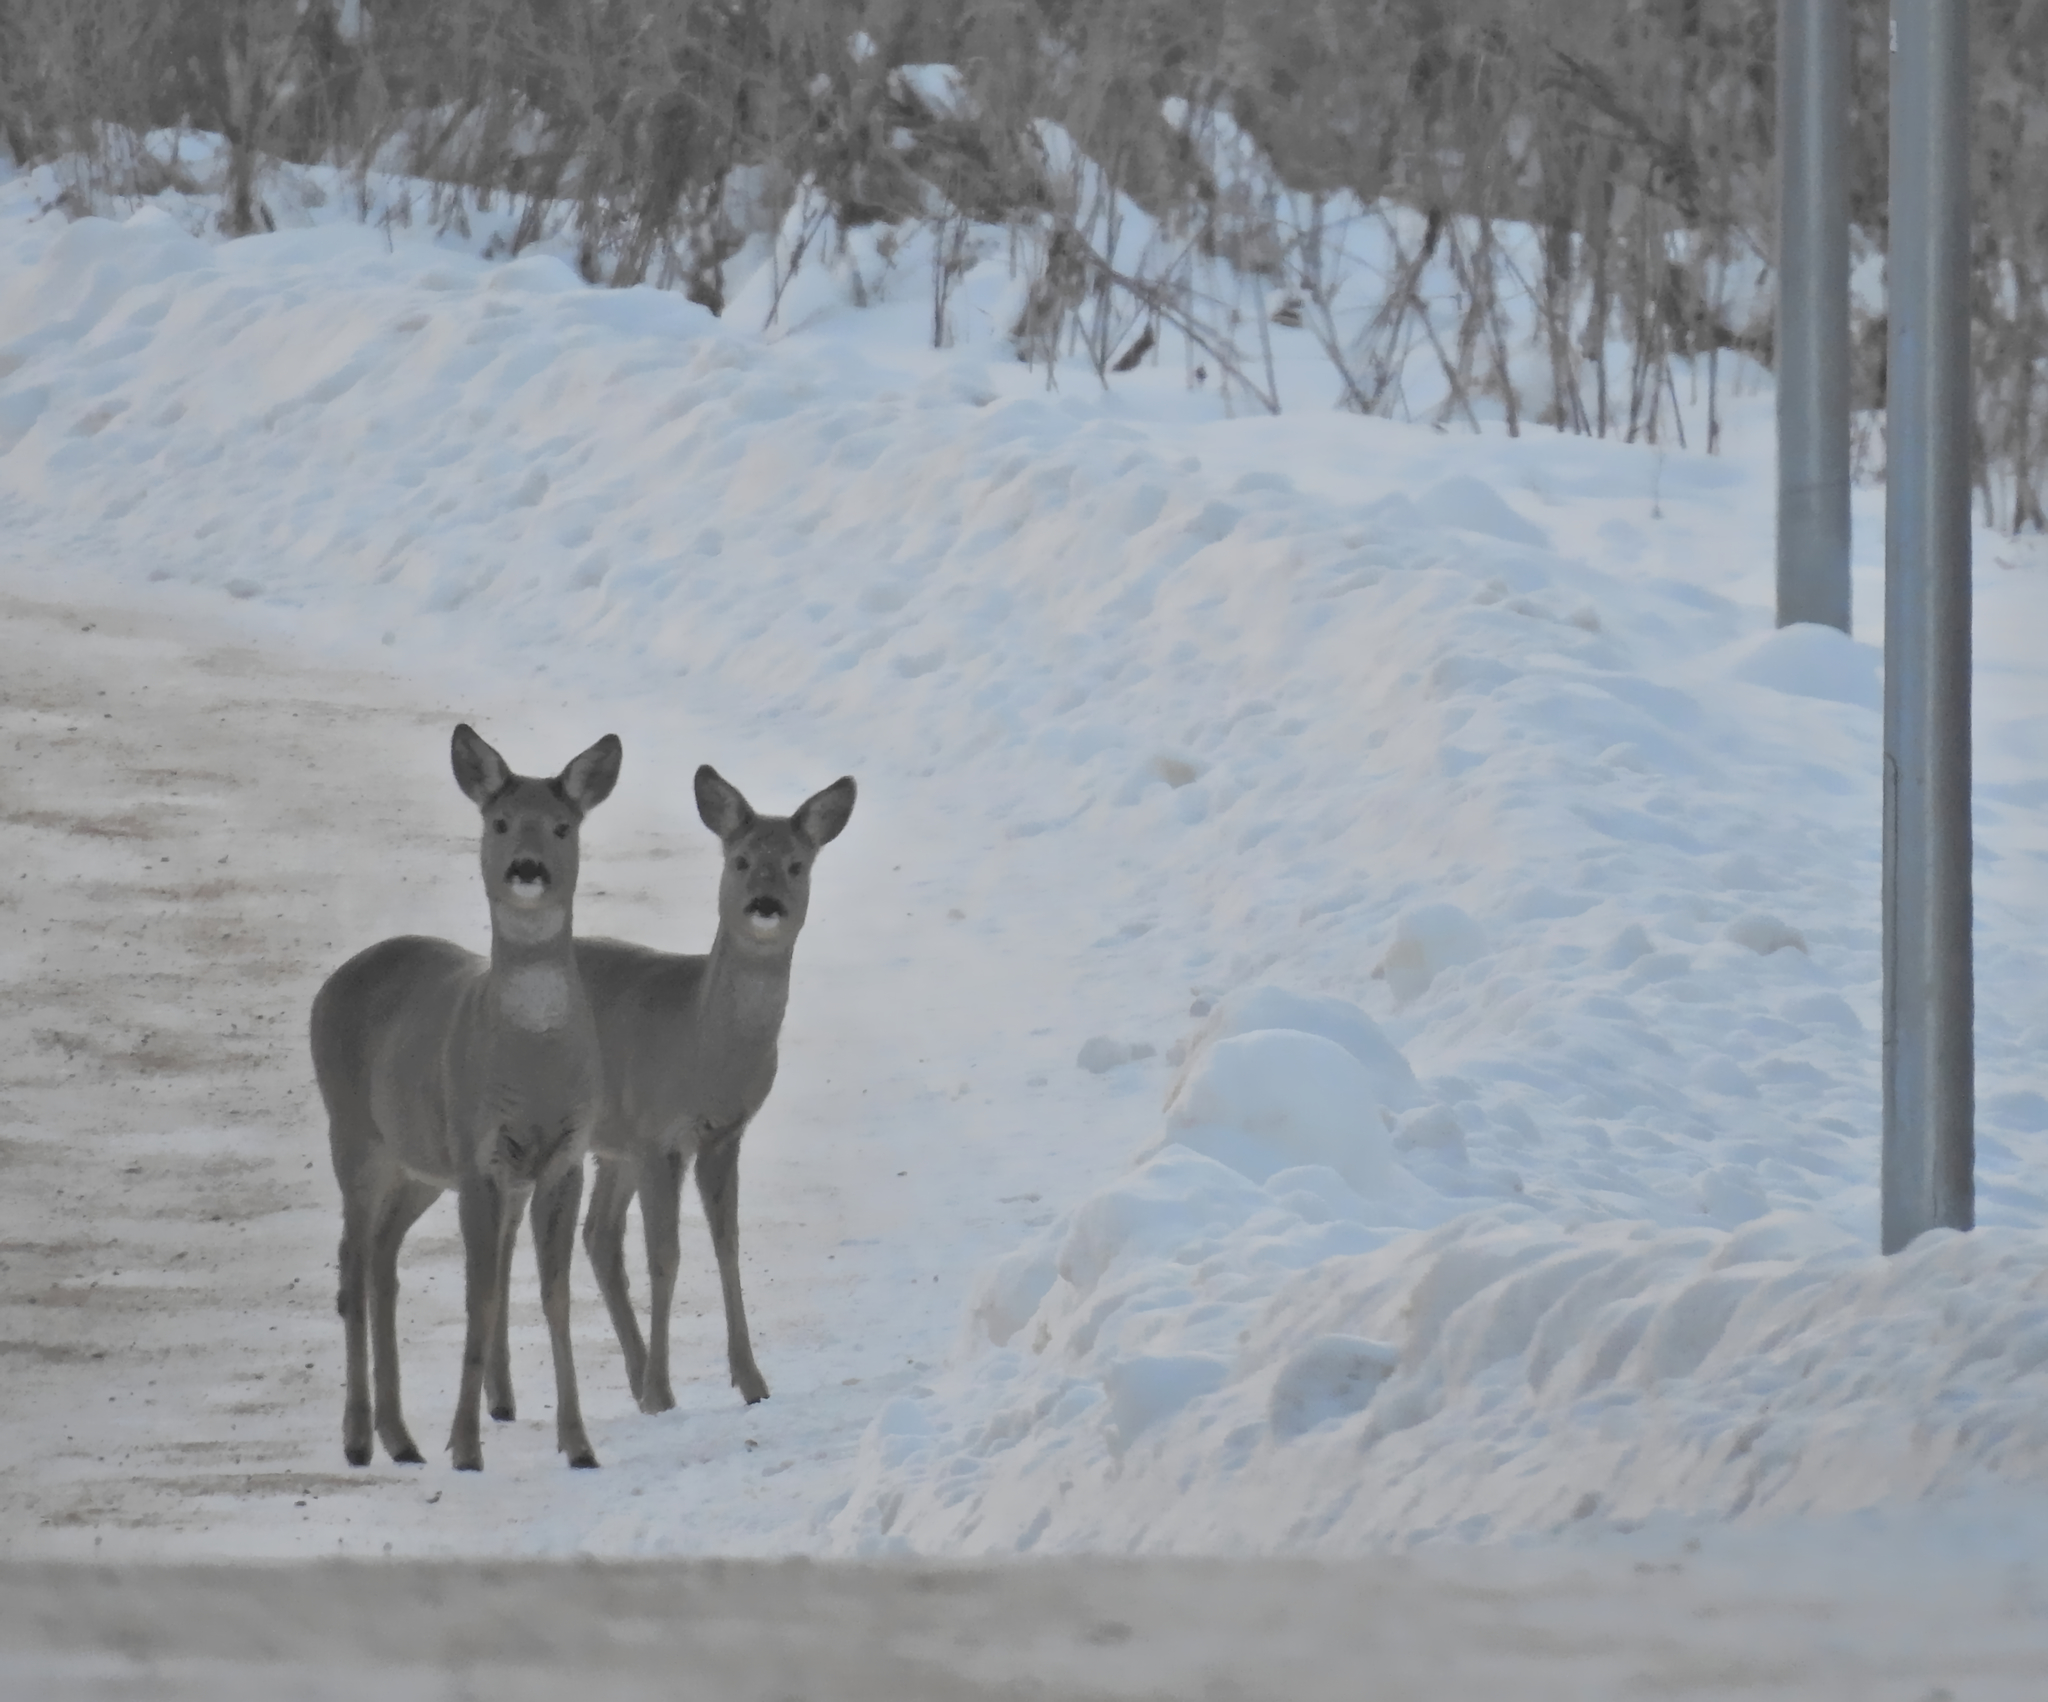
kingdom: Animalia
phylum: Chordata
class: Mammalia
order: Artiodactyla
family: Cervidae
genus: Capreolus
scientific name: Capreolus capreolus
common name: Western roe deer
